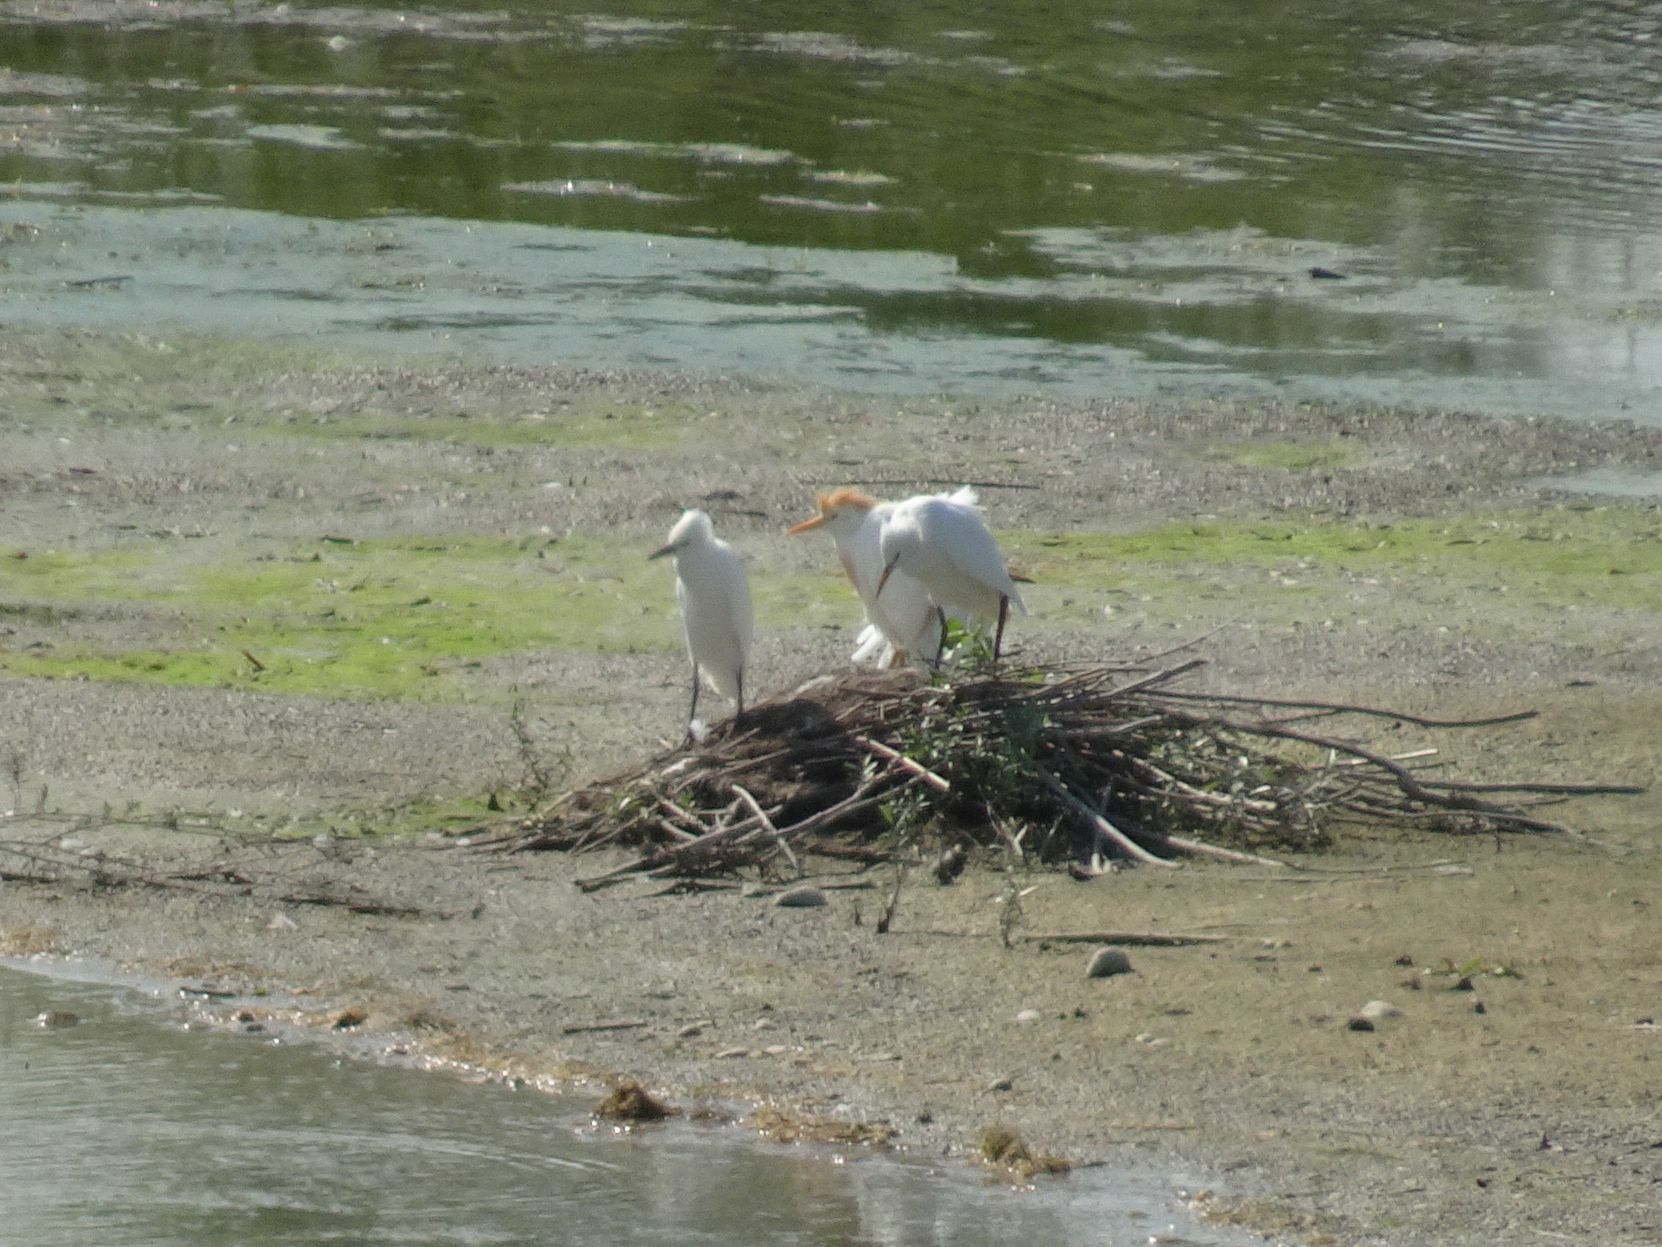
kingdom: Animalia
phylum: Chordata
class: Aves
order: Pelecaniformes
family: Ardeidae
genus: Bubulcus
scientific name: Bubulcus ibis
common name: Cattle egret
